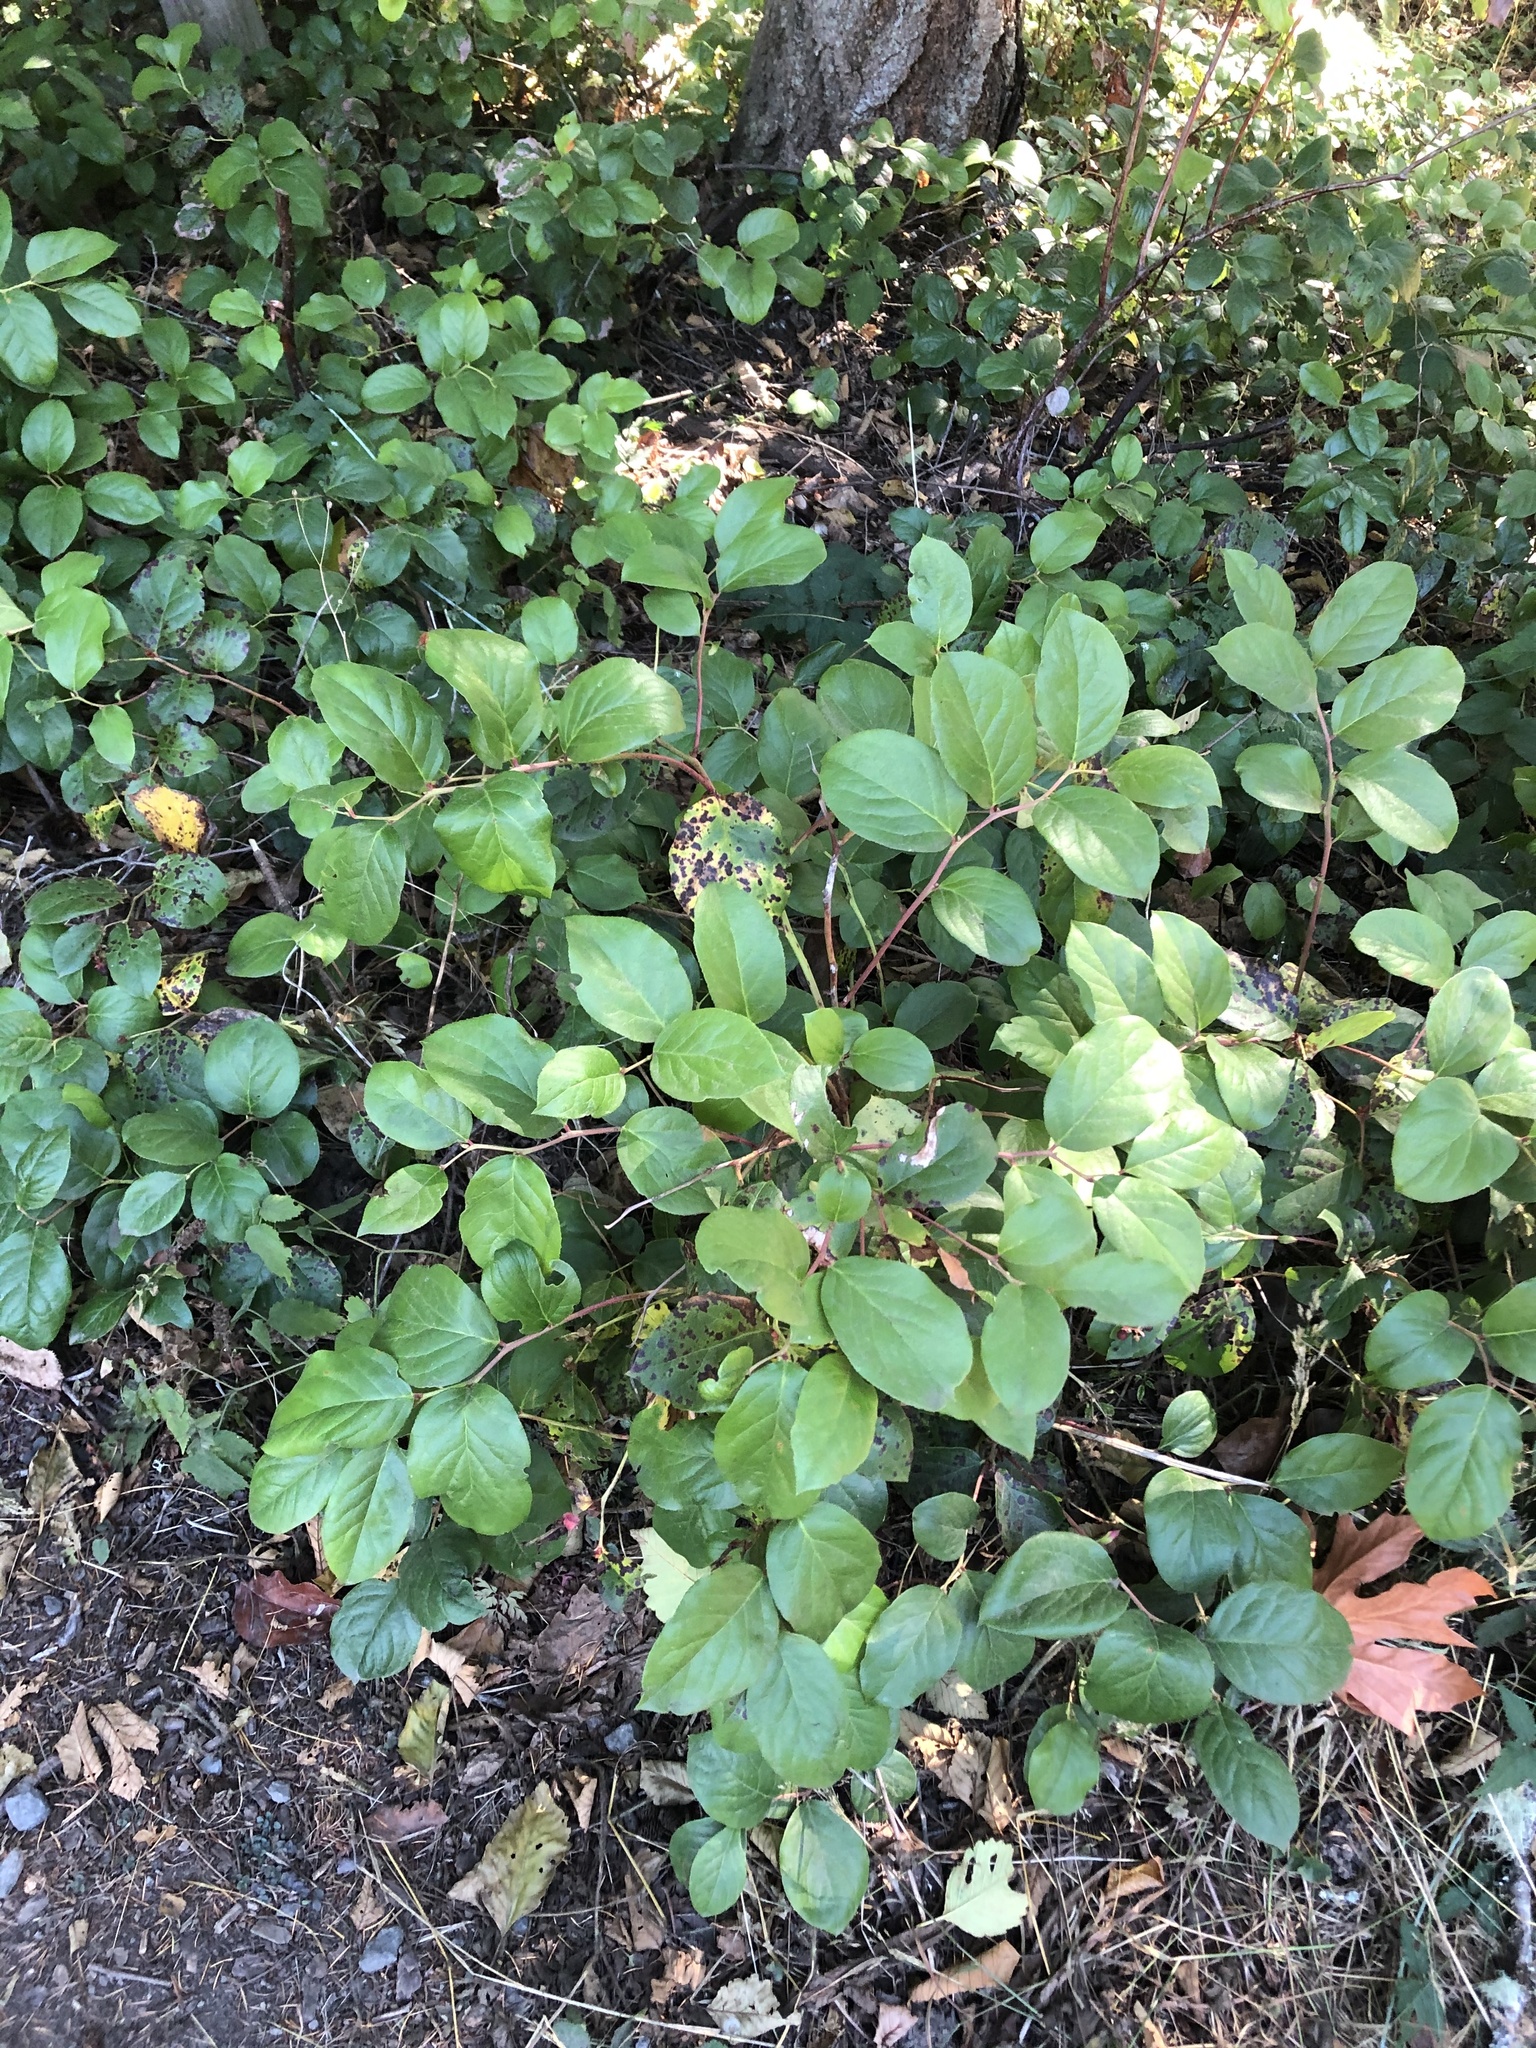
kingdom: Plantae
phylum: Tracheophyta
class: Magnoliopsida
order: Ericales
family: Ericaceae
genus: Gaultheria
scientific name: Gaultheria shallon
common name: Shallon
